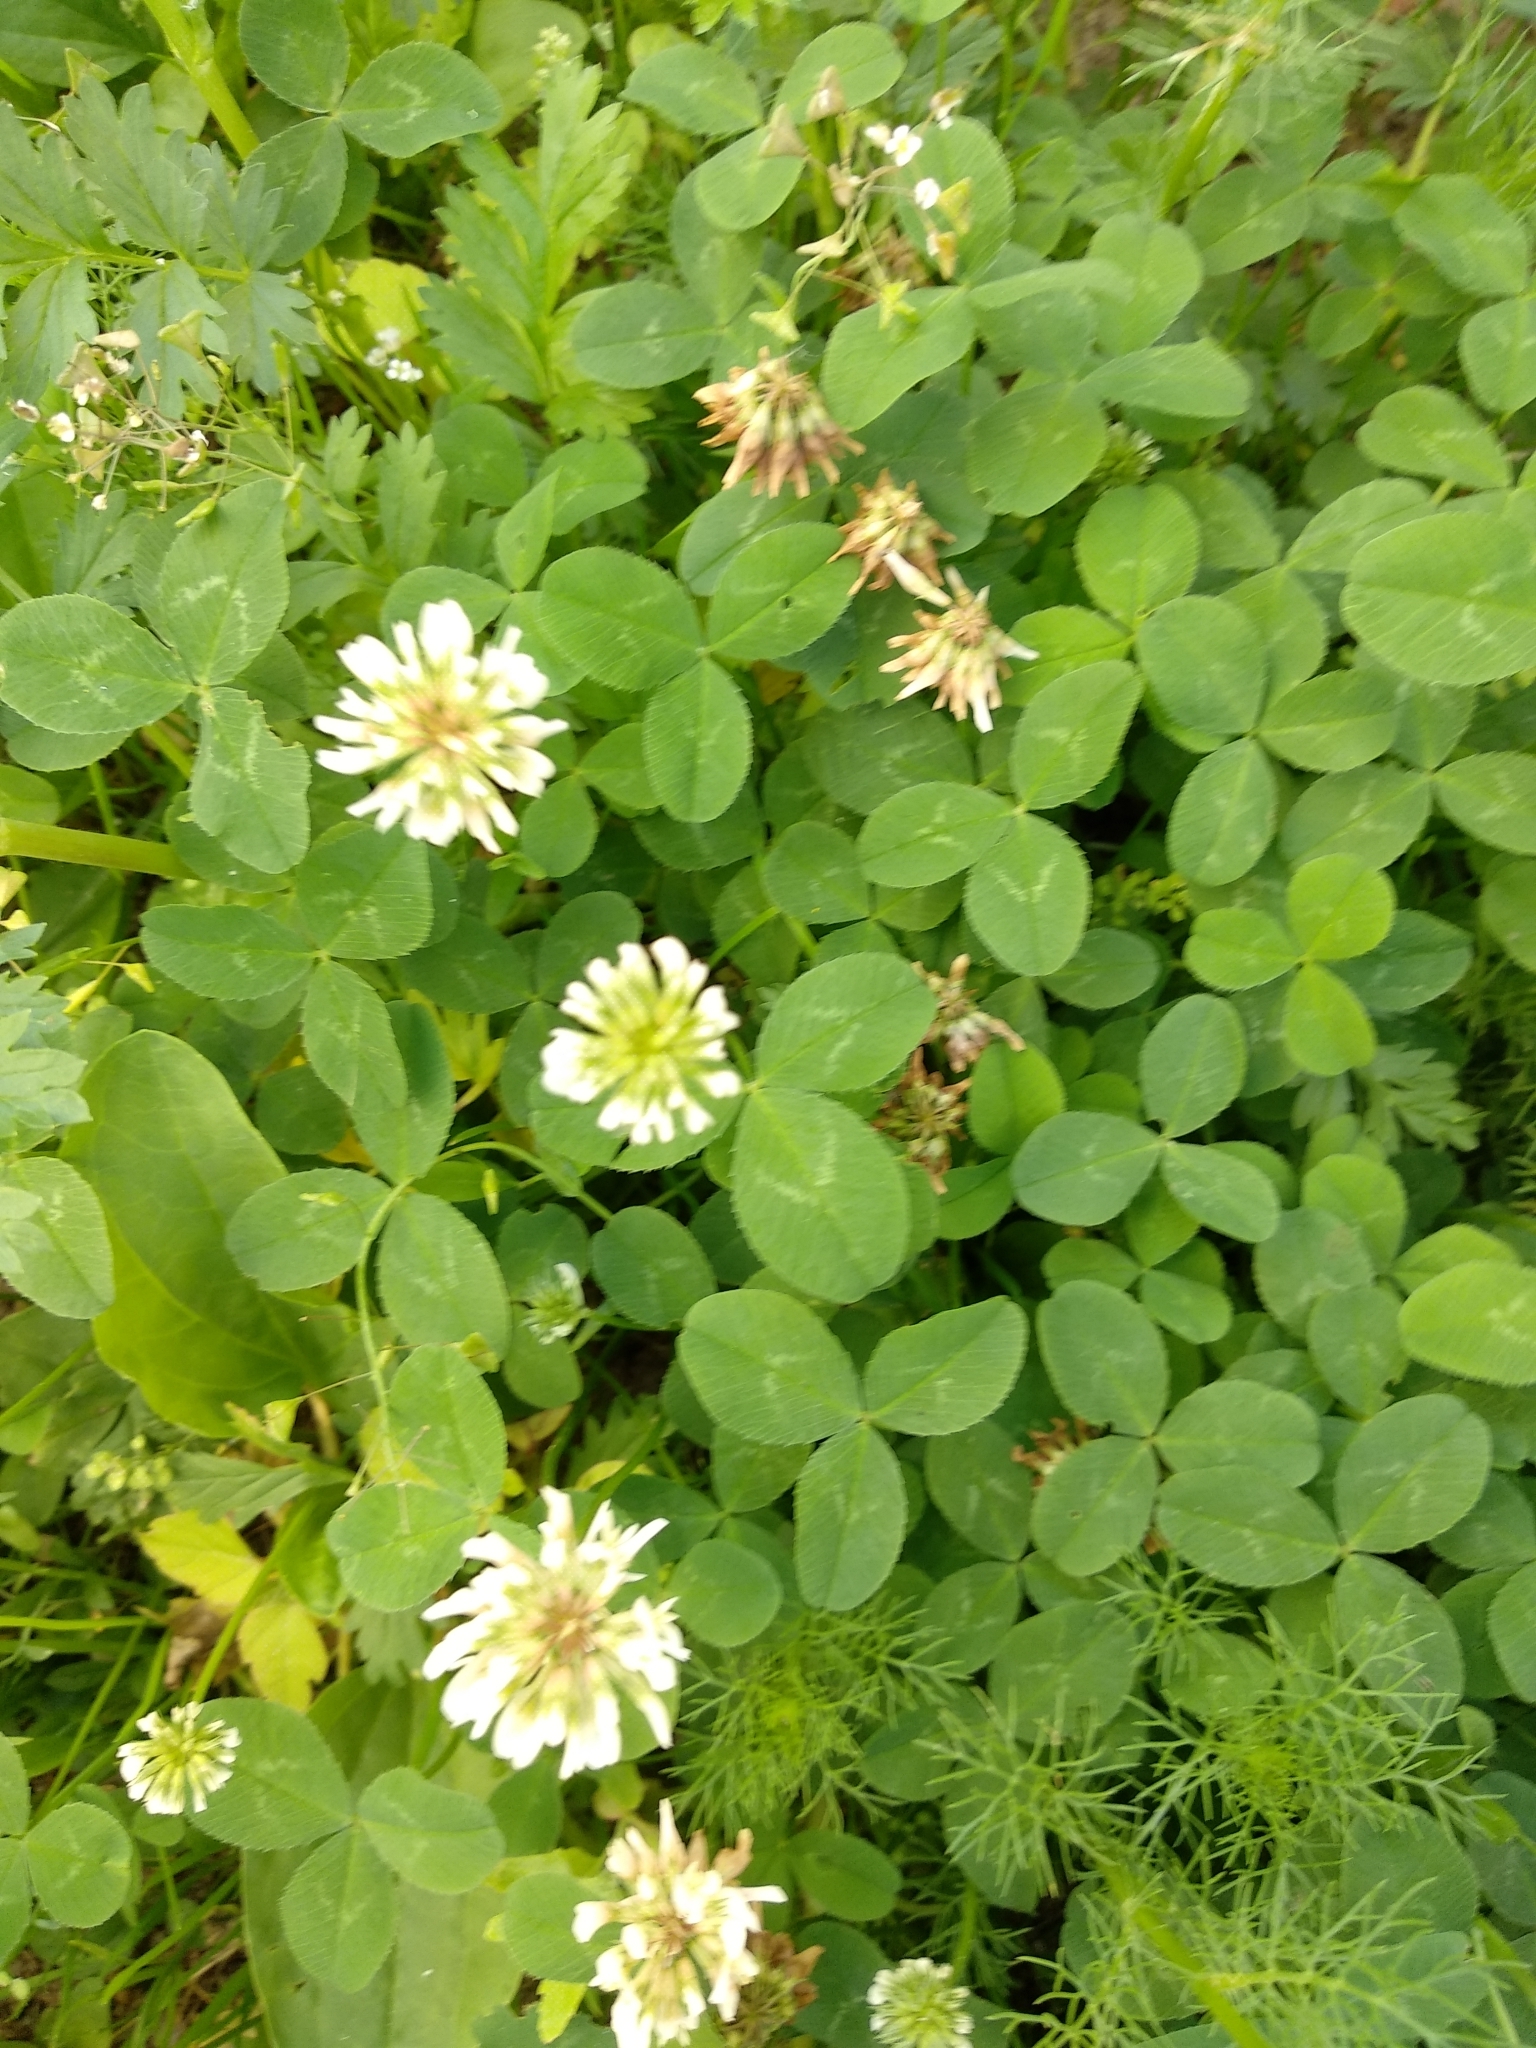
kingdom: Plantae
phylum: Tracheophyta
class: Magnoliopsida
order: Fabales
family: Fabaceae
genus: Trifolium
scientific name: Trifolium repens
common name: White clover
